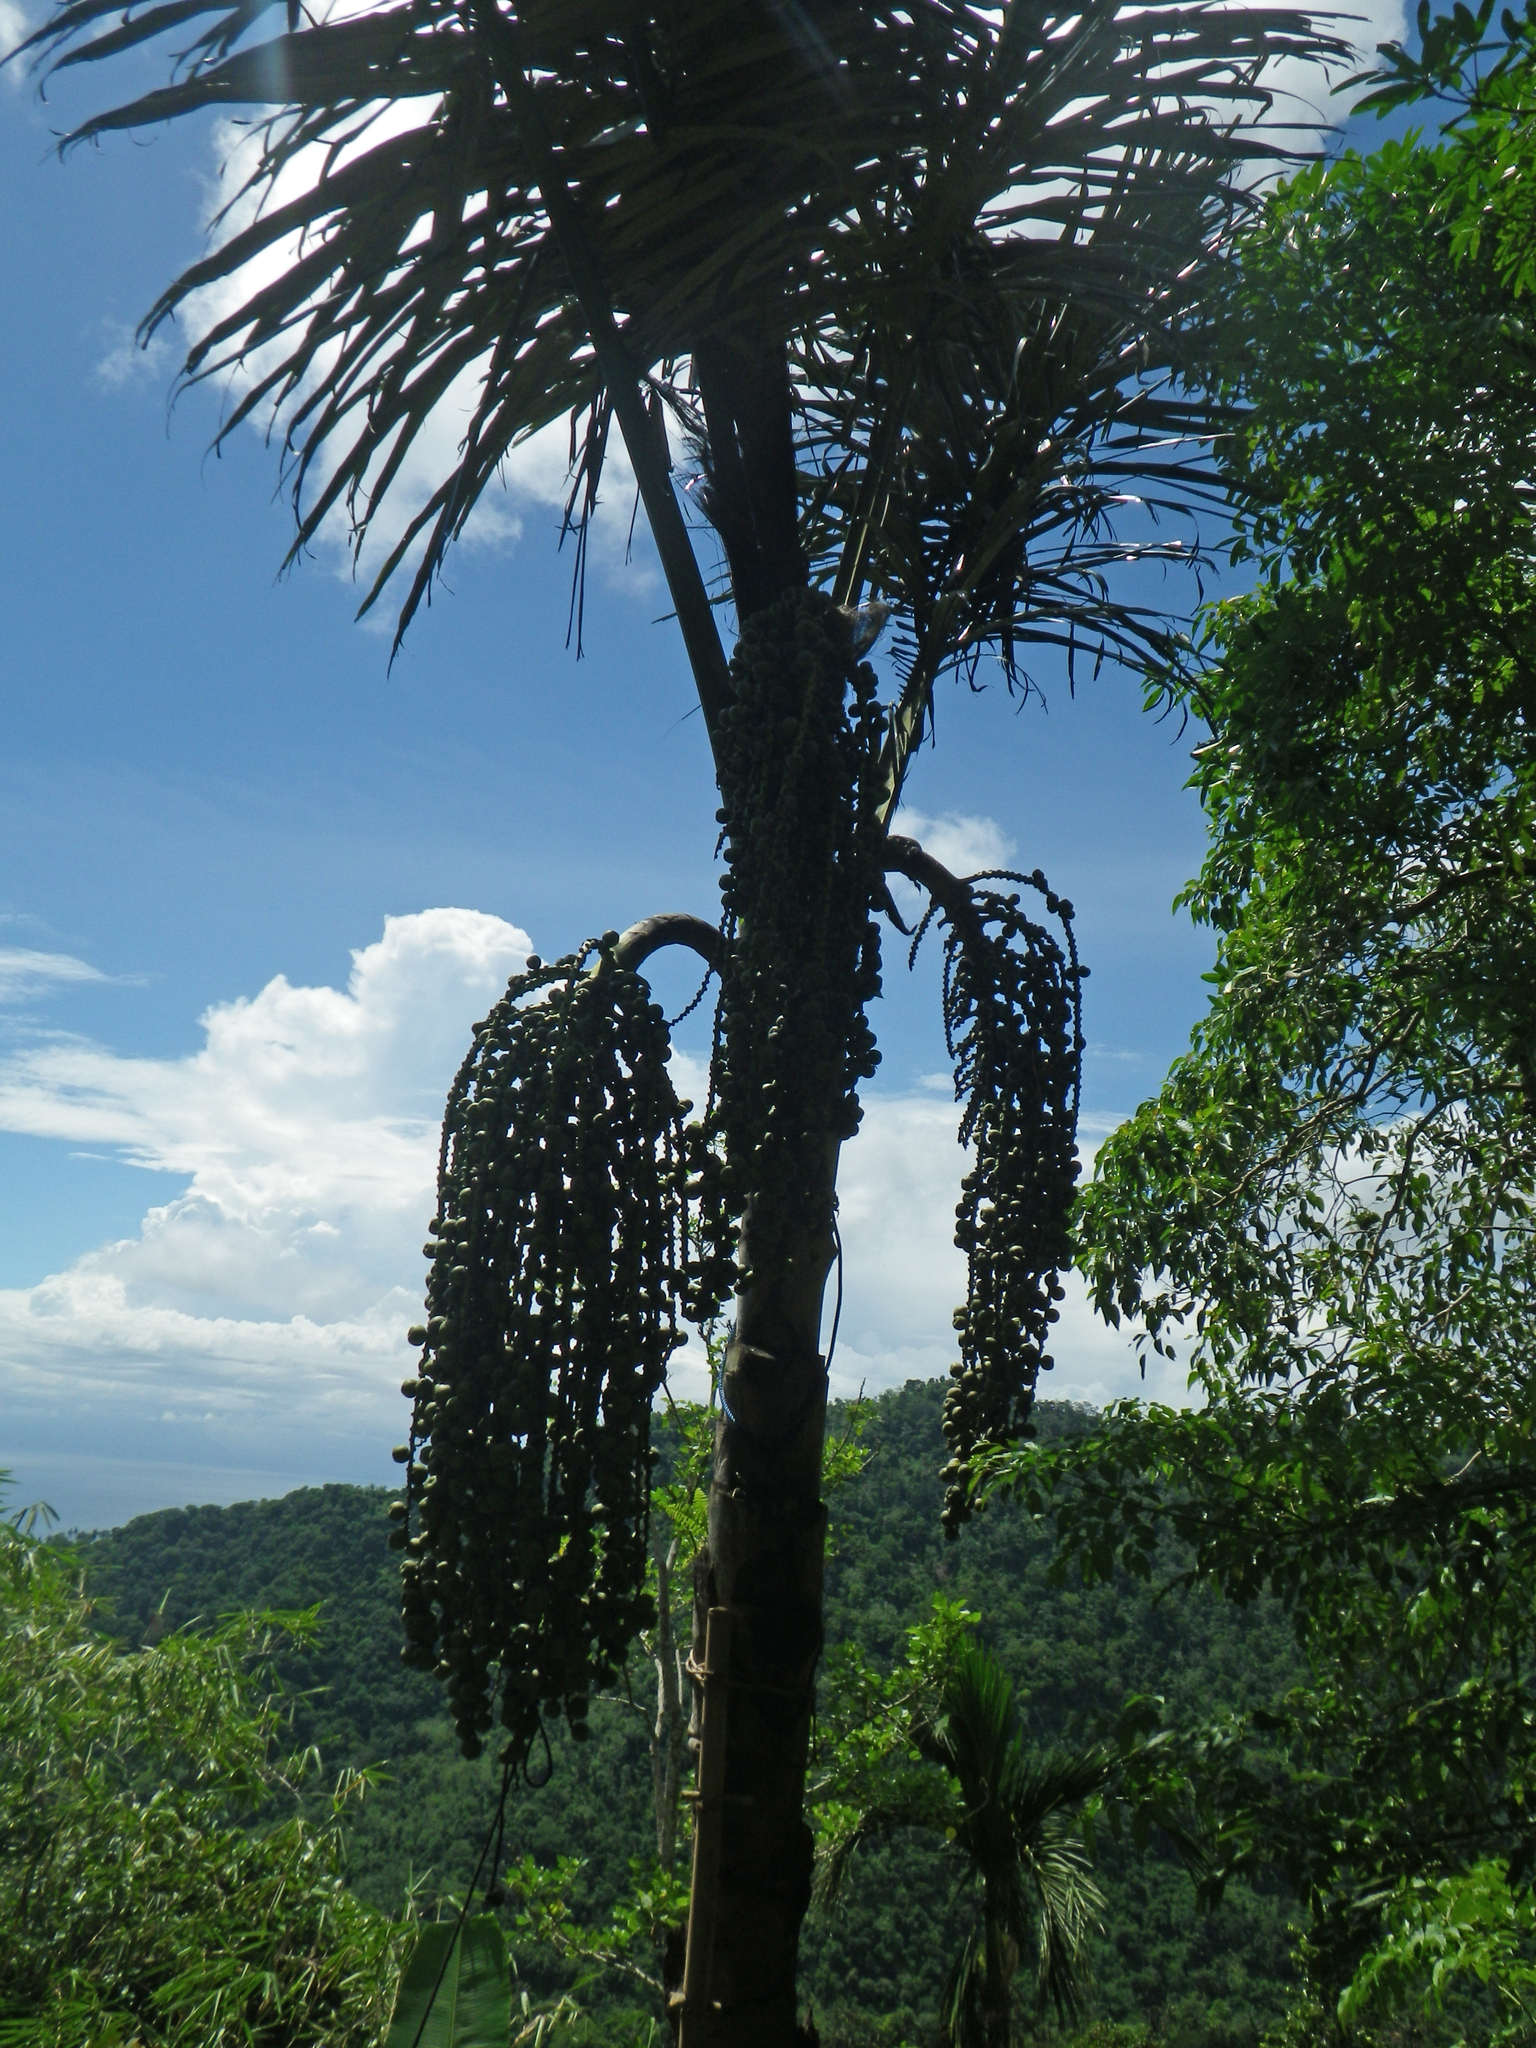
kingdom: Plantae
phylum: Tracheophyta
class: Liliopsida
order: Arecales
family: Arecaceae
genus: Arenga
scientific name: Arenga pinnata
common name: Black-fiber palm
